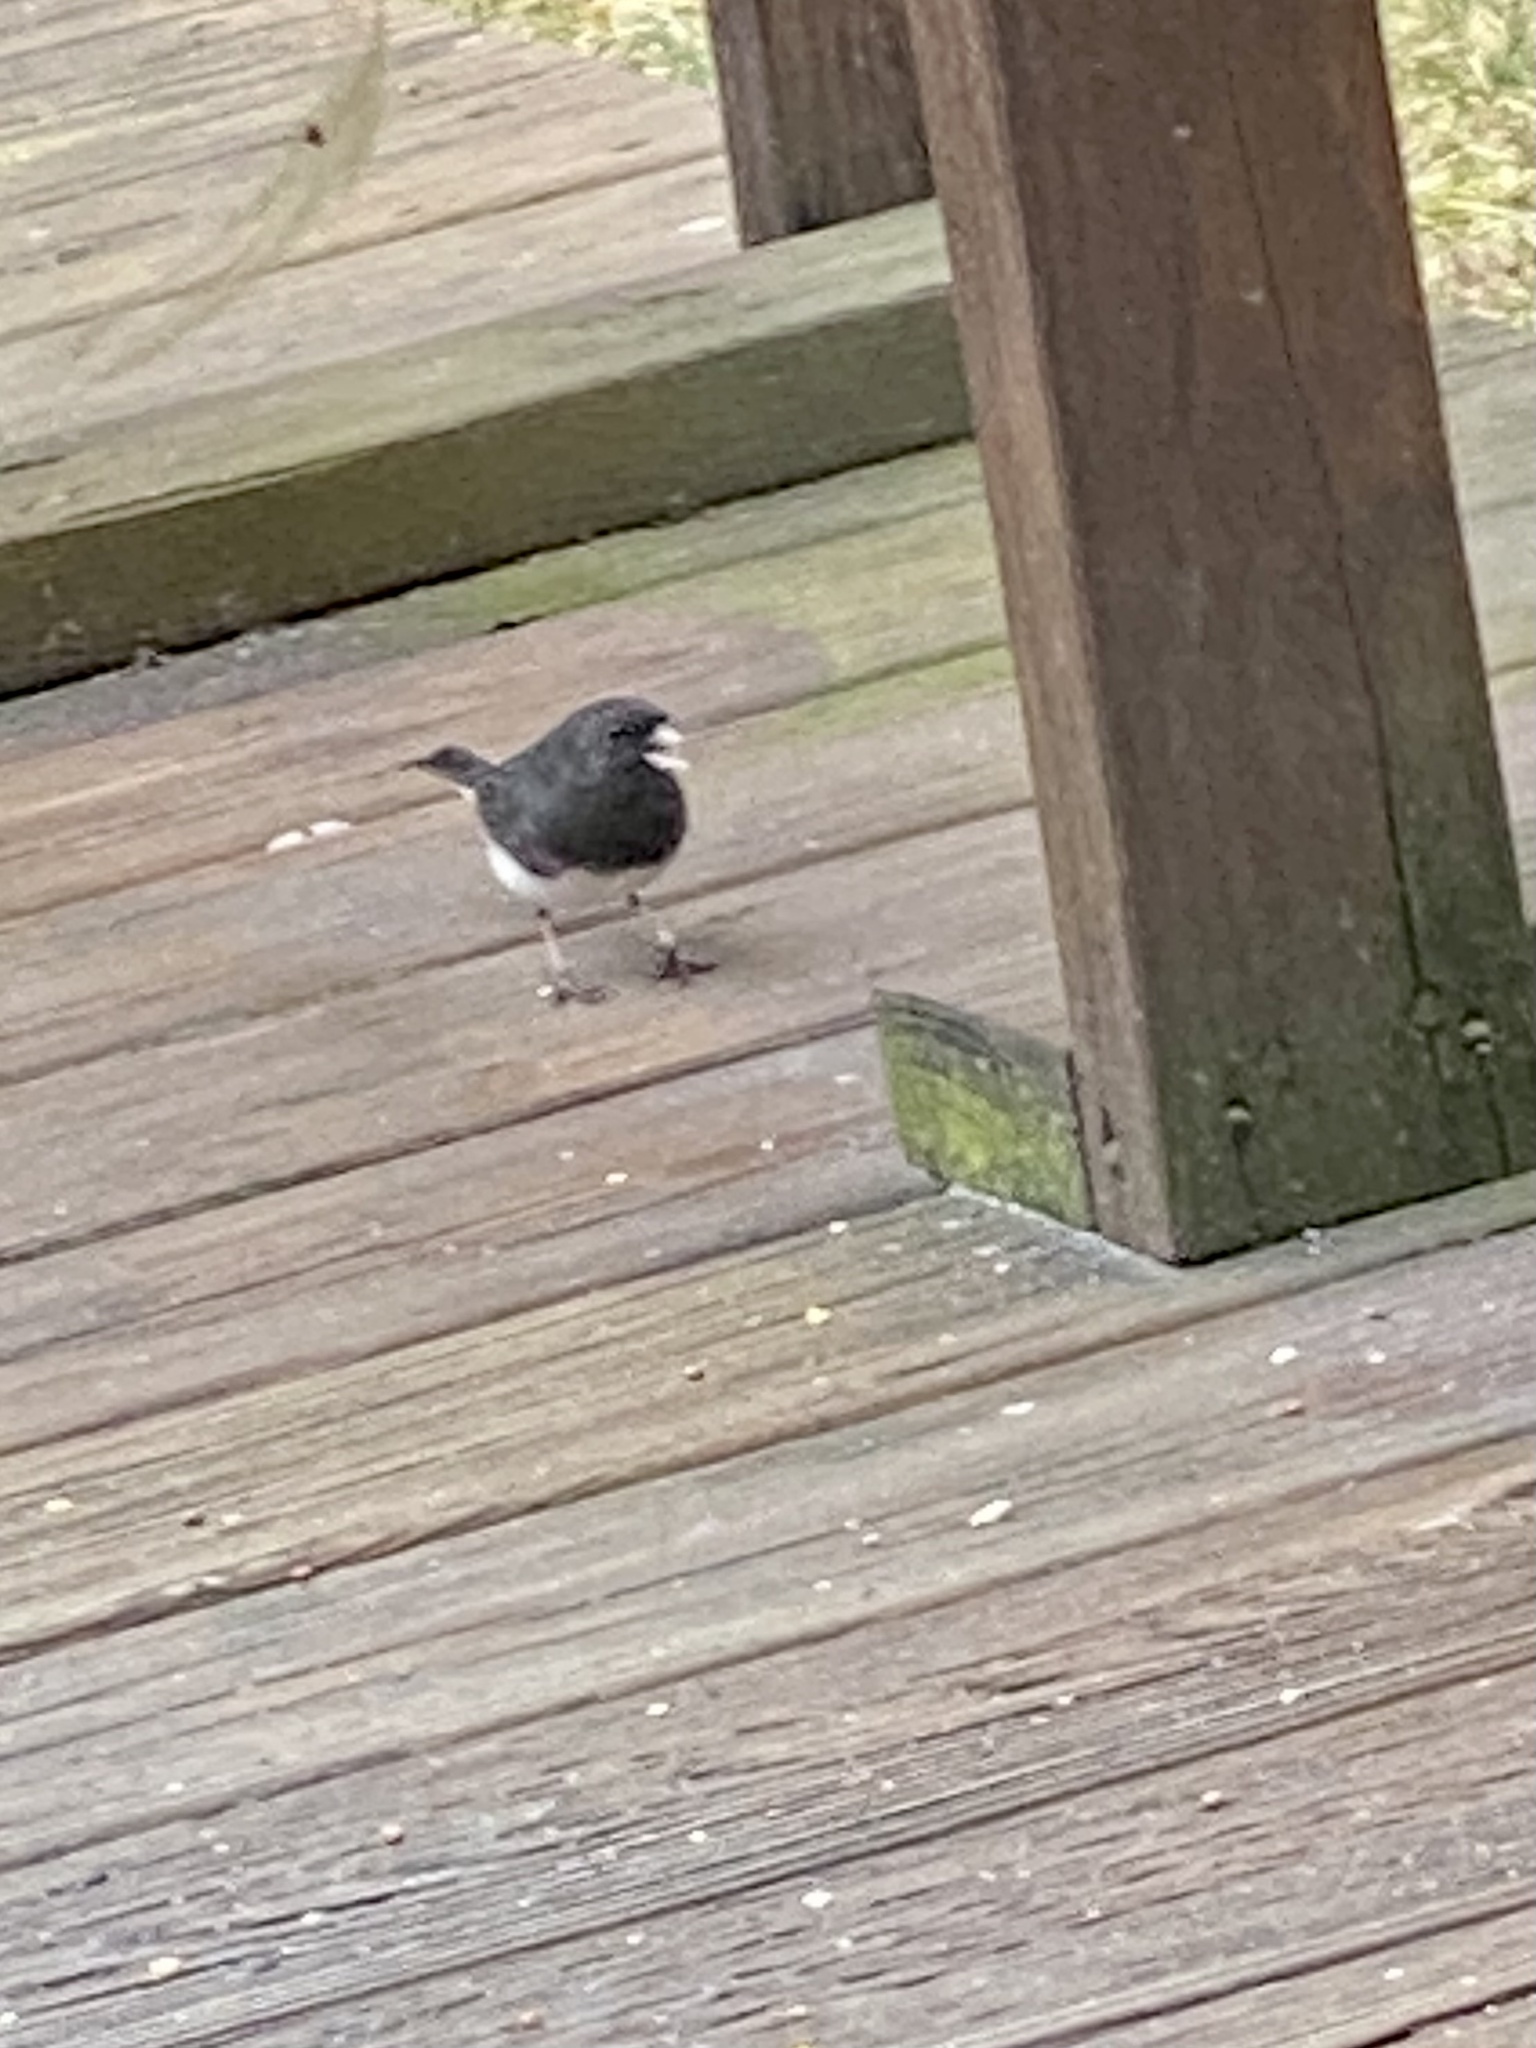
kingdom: Animalia
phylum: Chordata
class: Aves
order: Passeriformes
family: Passerellidae
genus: Junco
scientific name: Junco hyemalis
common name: Dark-eyed junco
